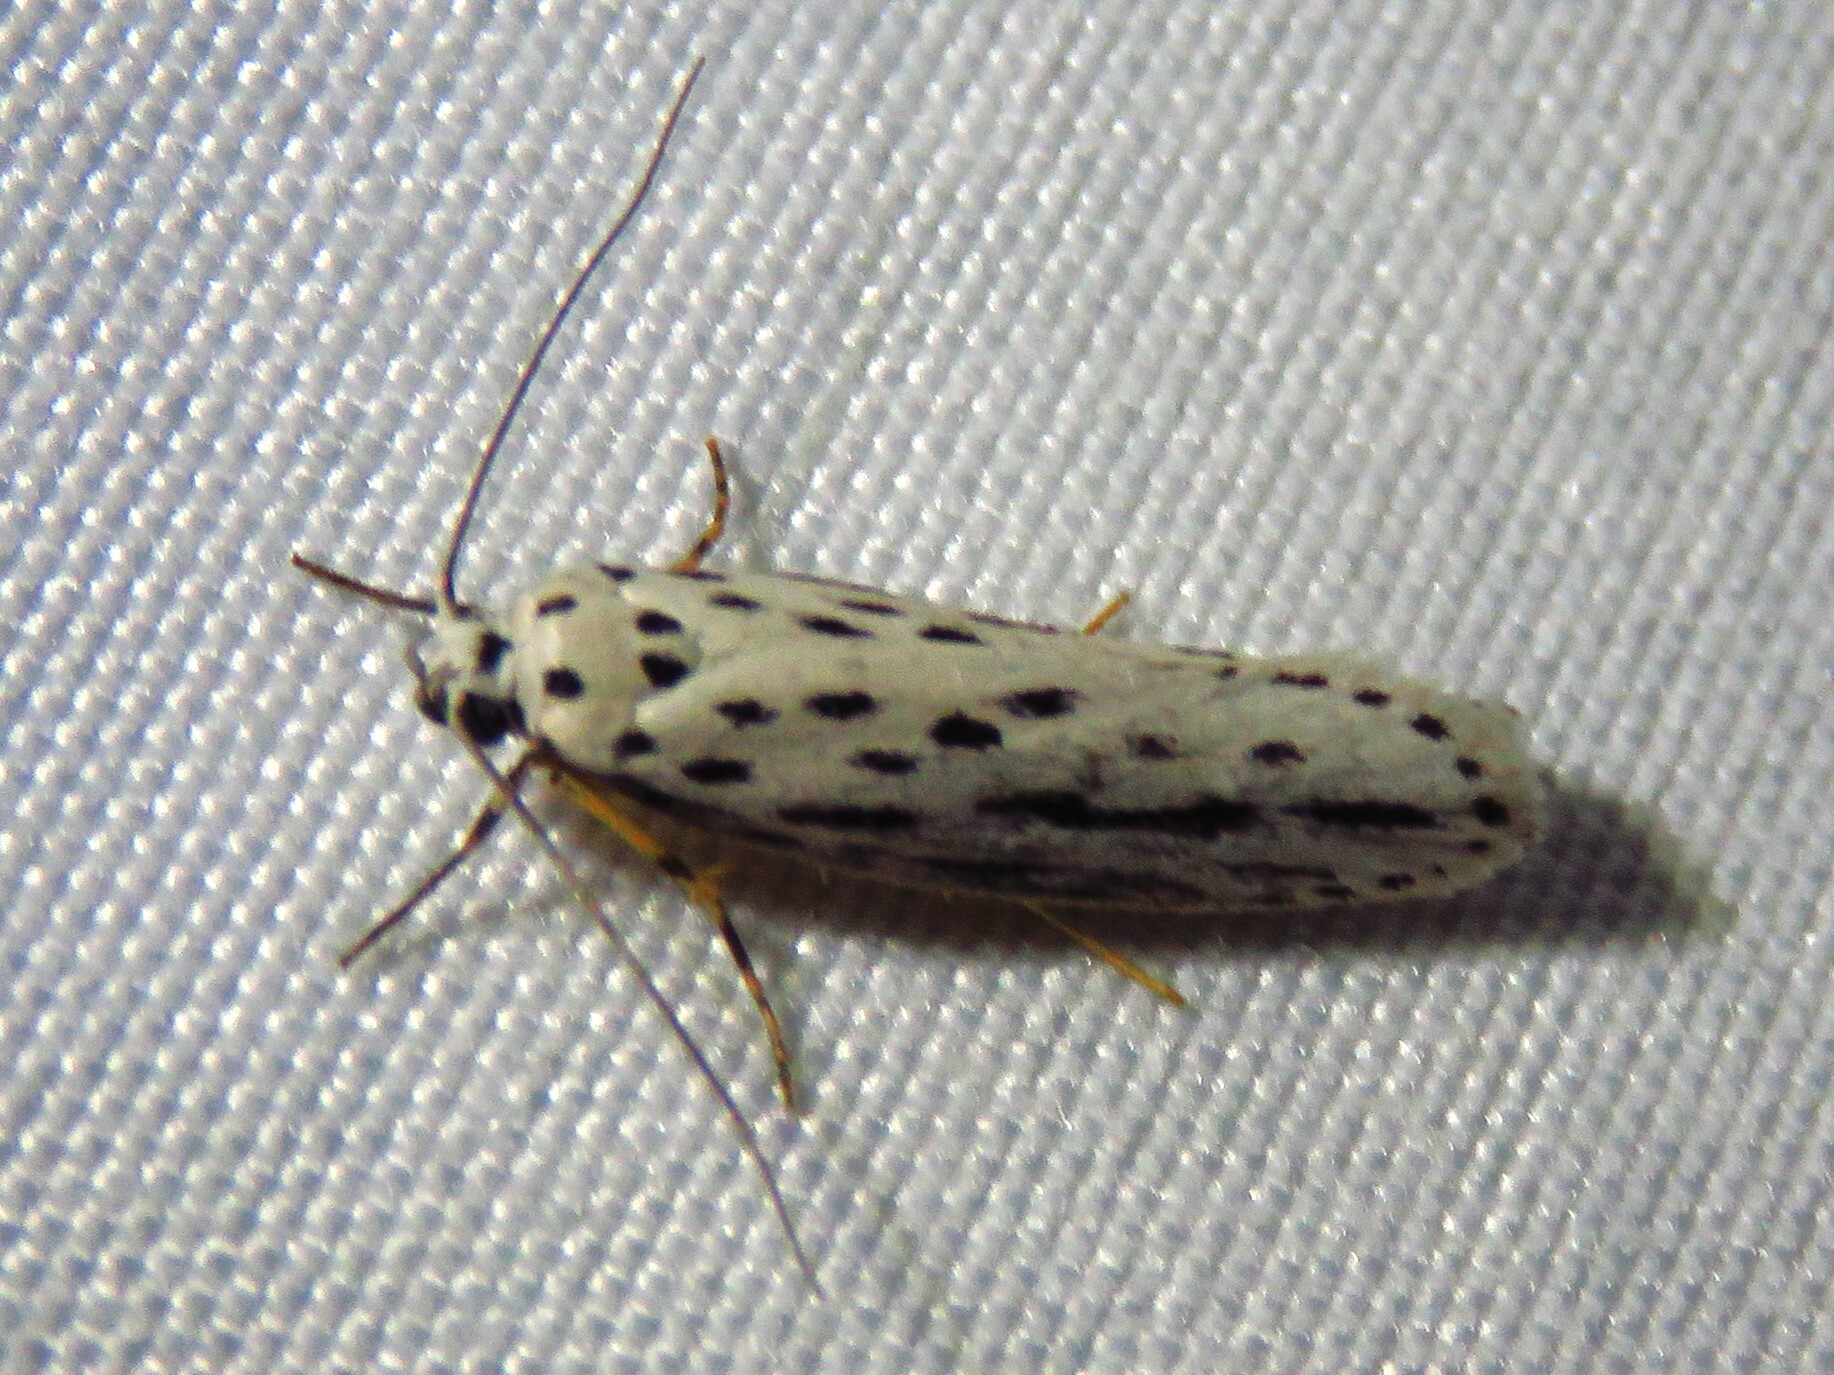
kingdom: Animalia
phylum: Arthropoda
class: Insecta
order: Lepidoptera
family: Ethmiidae
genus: Ethmia
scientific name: Ethmia zelleriella
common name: Zeller's ethmia
